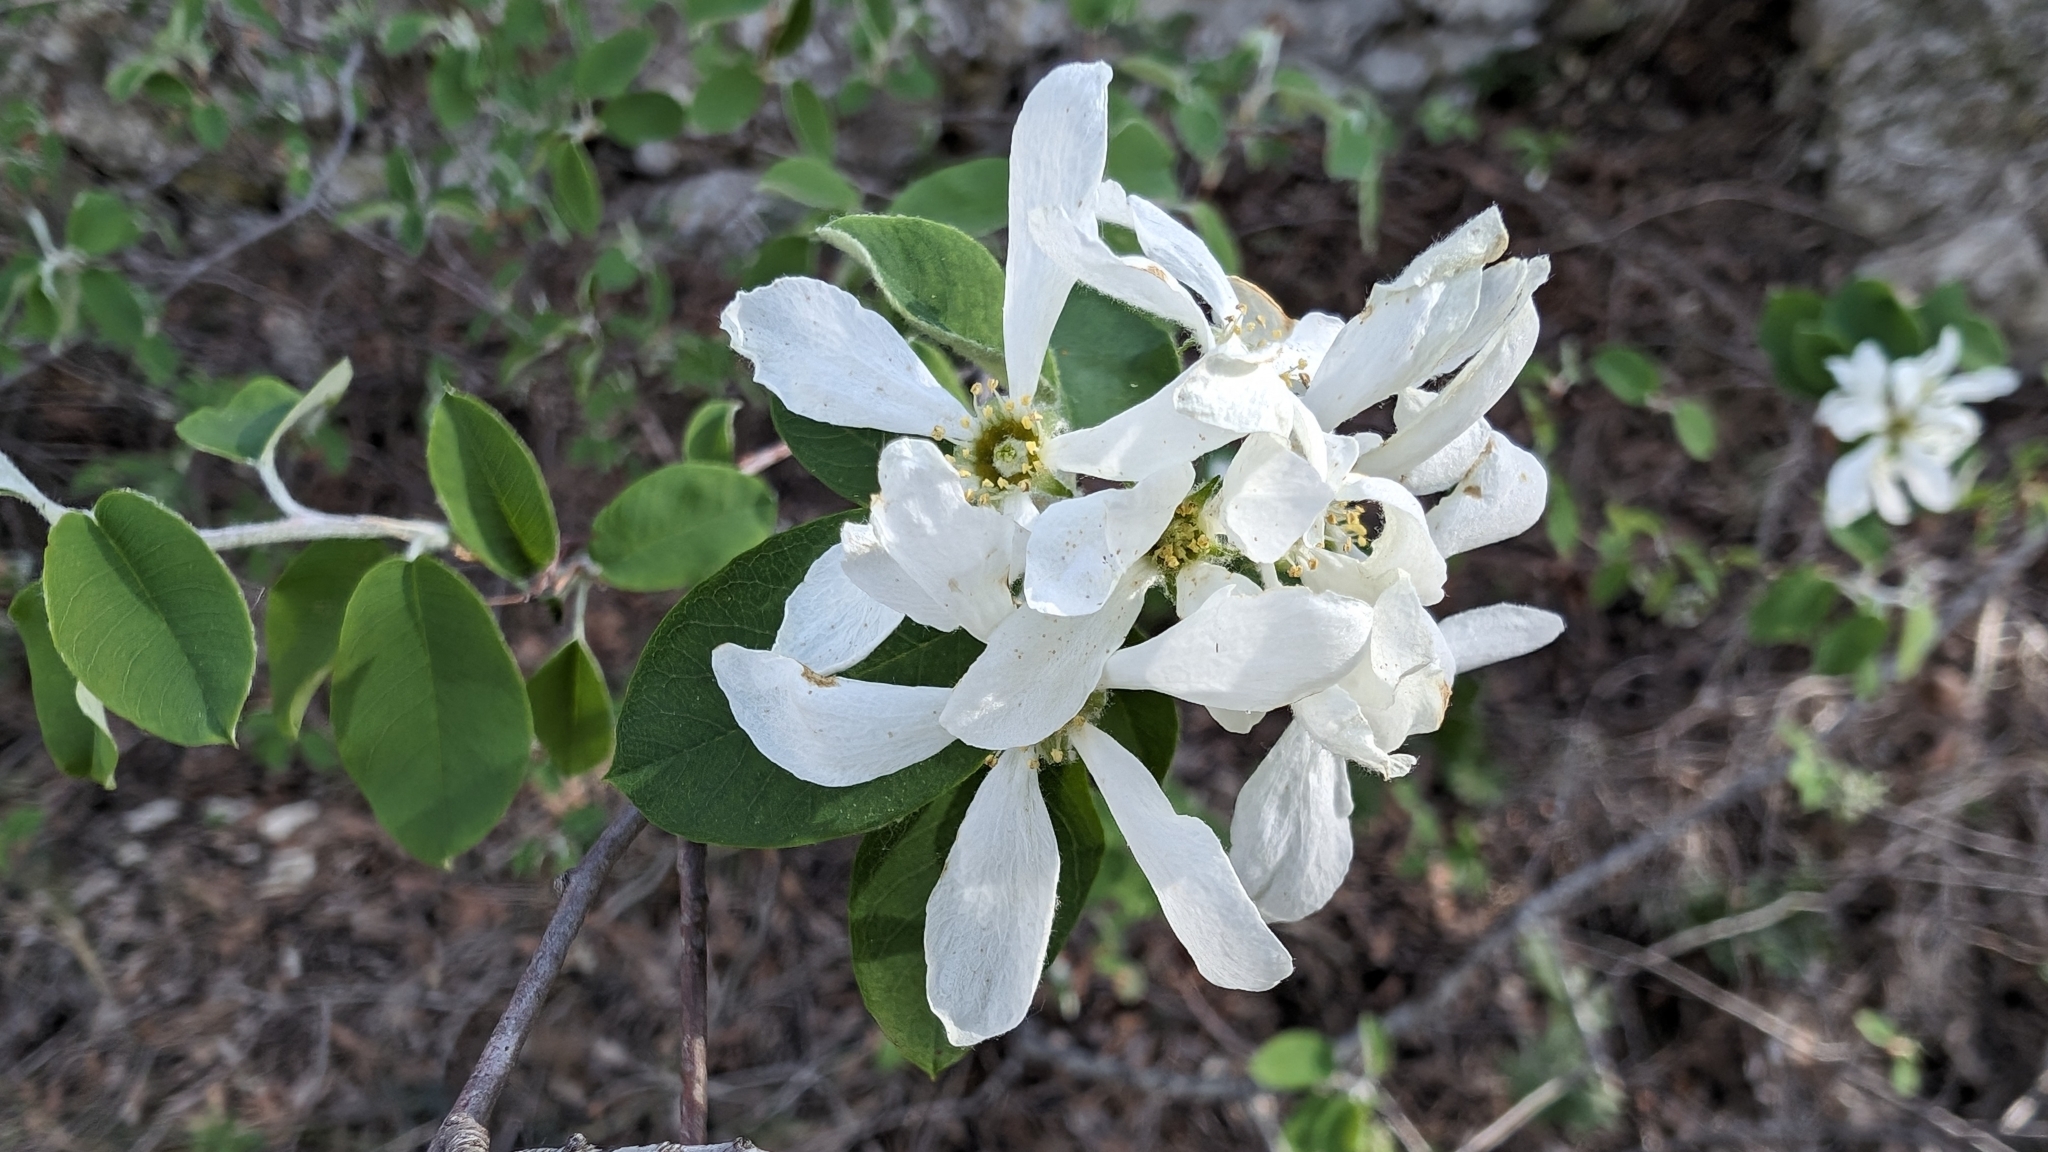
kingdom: Plantae
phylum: Tracheophyta
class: Magnoliopsida
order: Rosales
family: Rosaceae
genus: Amelanchier
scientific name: Amelanchier ovalis
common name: Serviceberry
